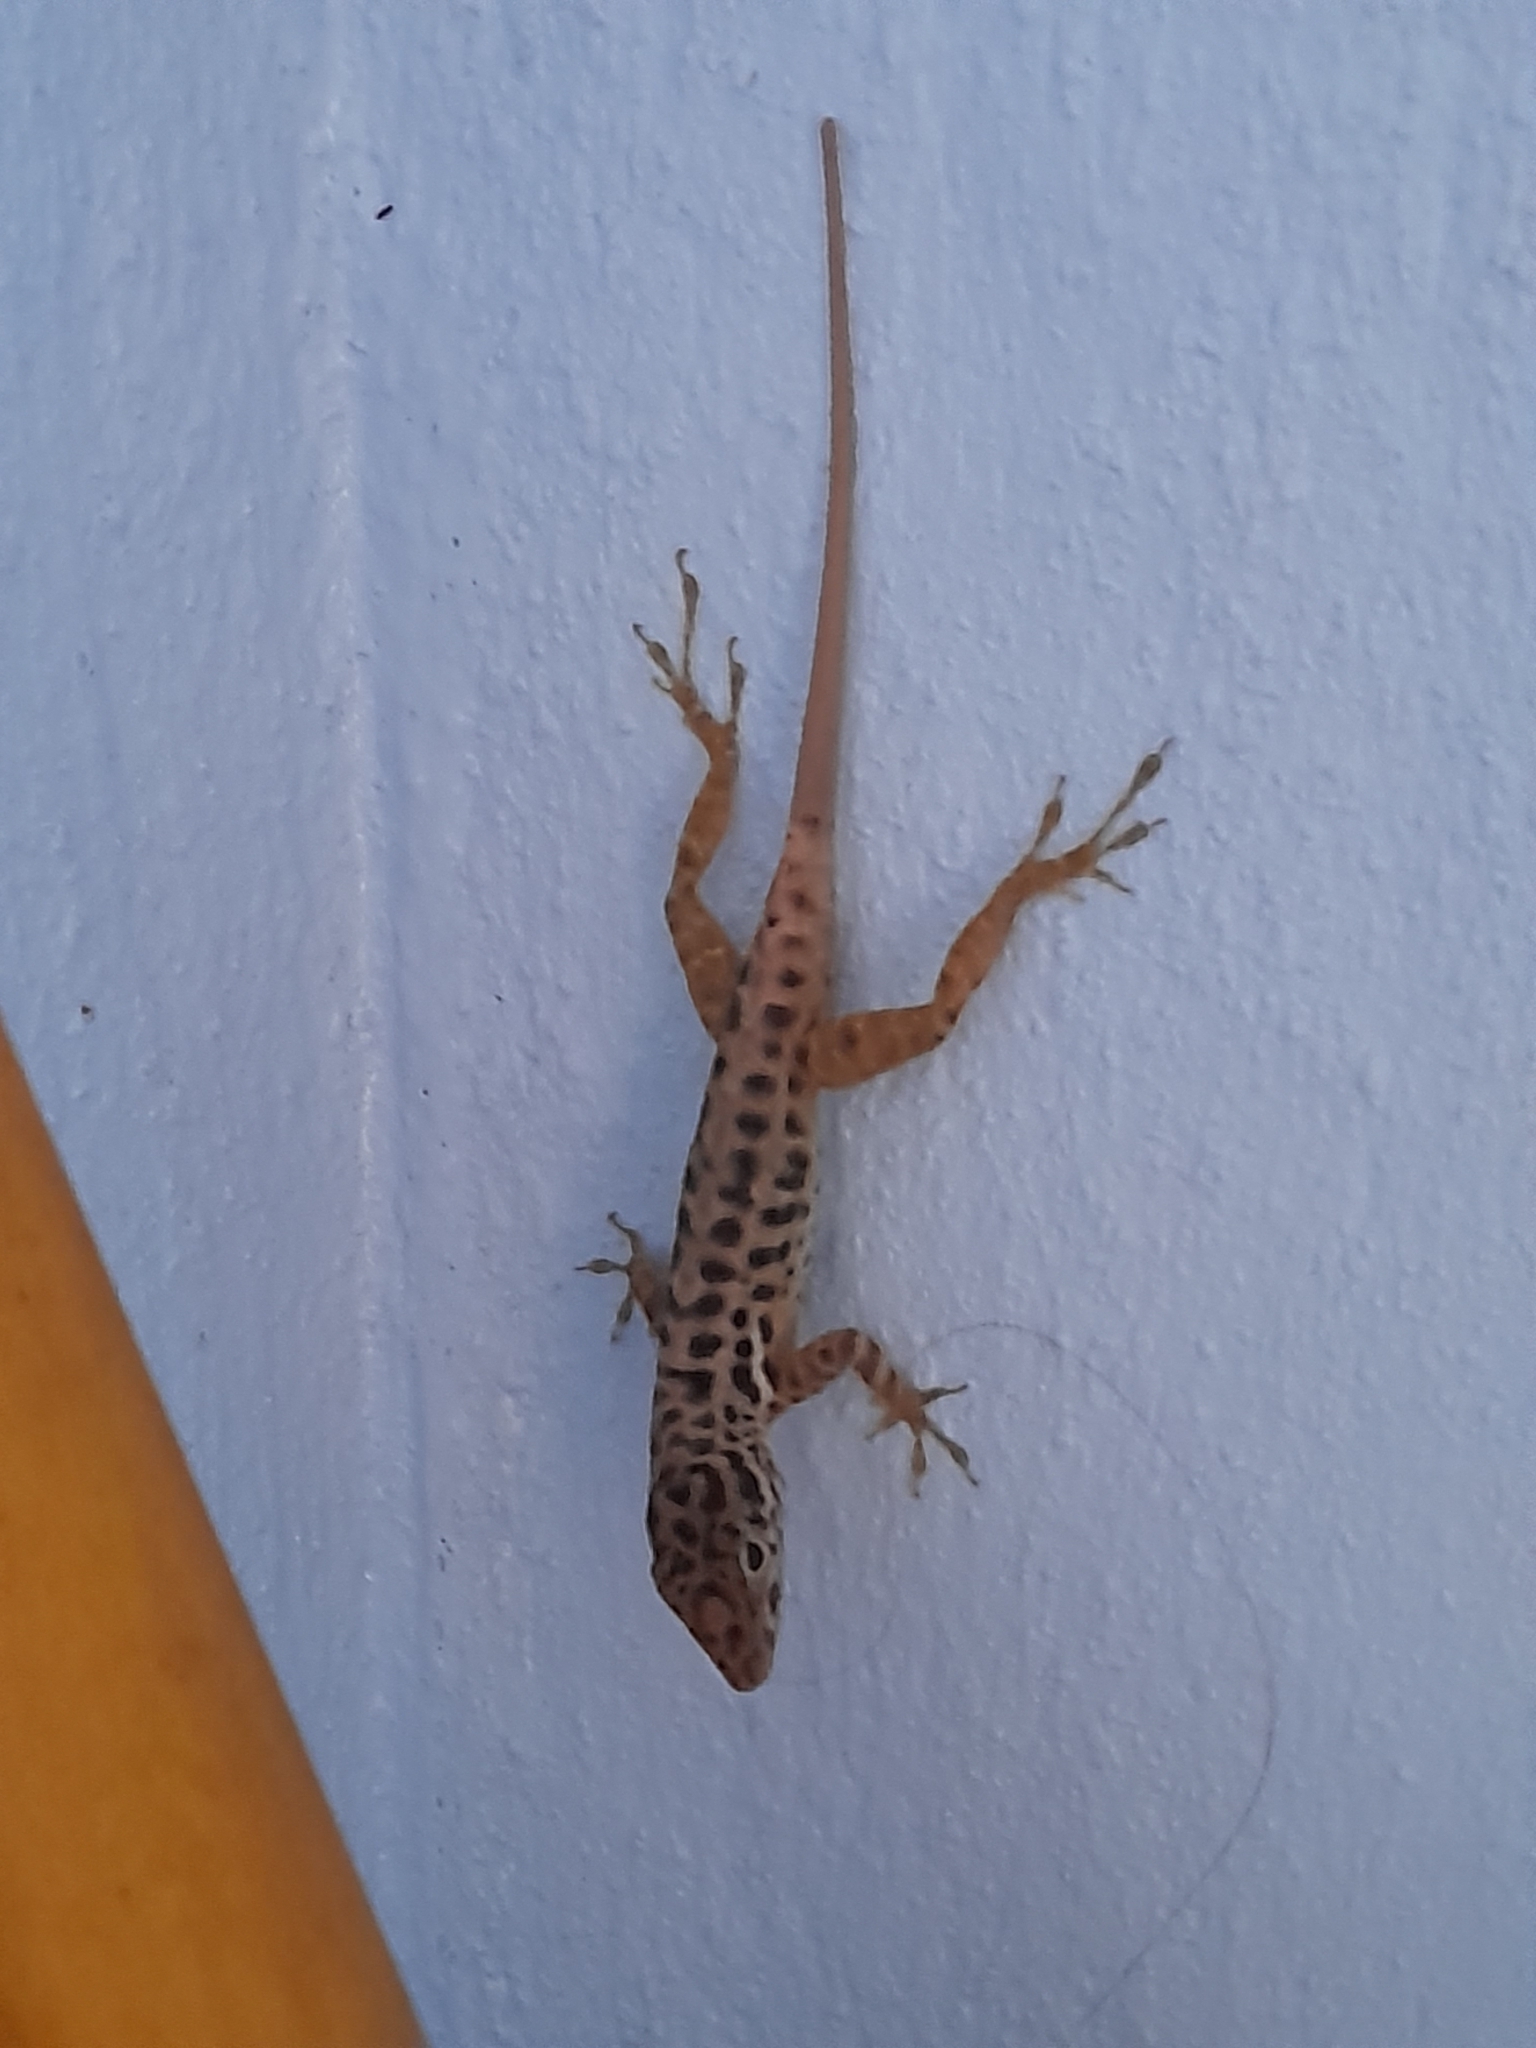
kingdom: Animalia
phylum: Chordata
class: Squamata
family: Dactyloidae
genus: Anolis
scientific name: Anolis sabanus
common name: Saba anole
